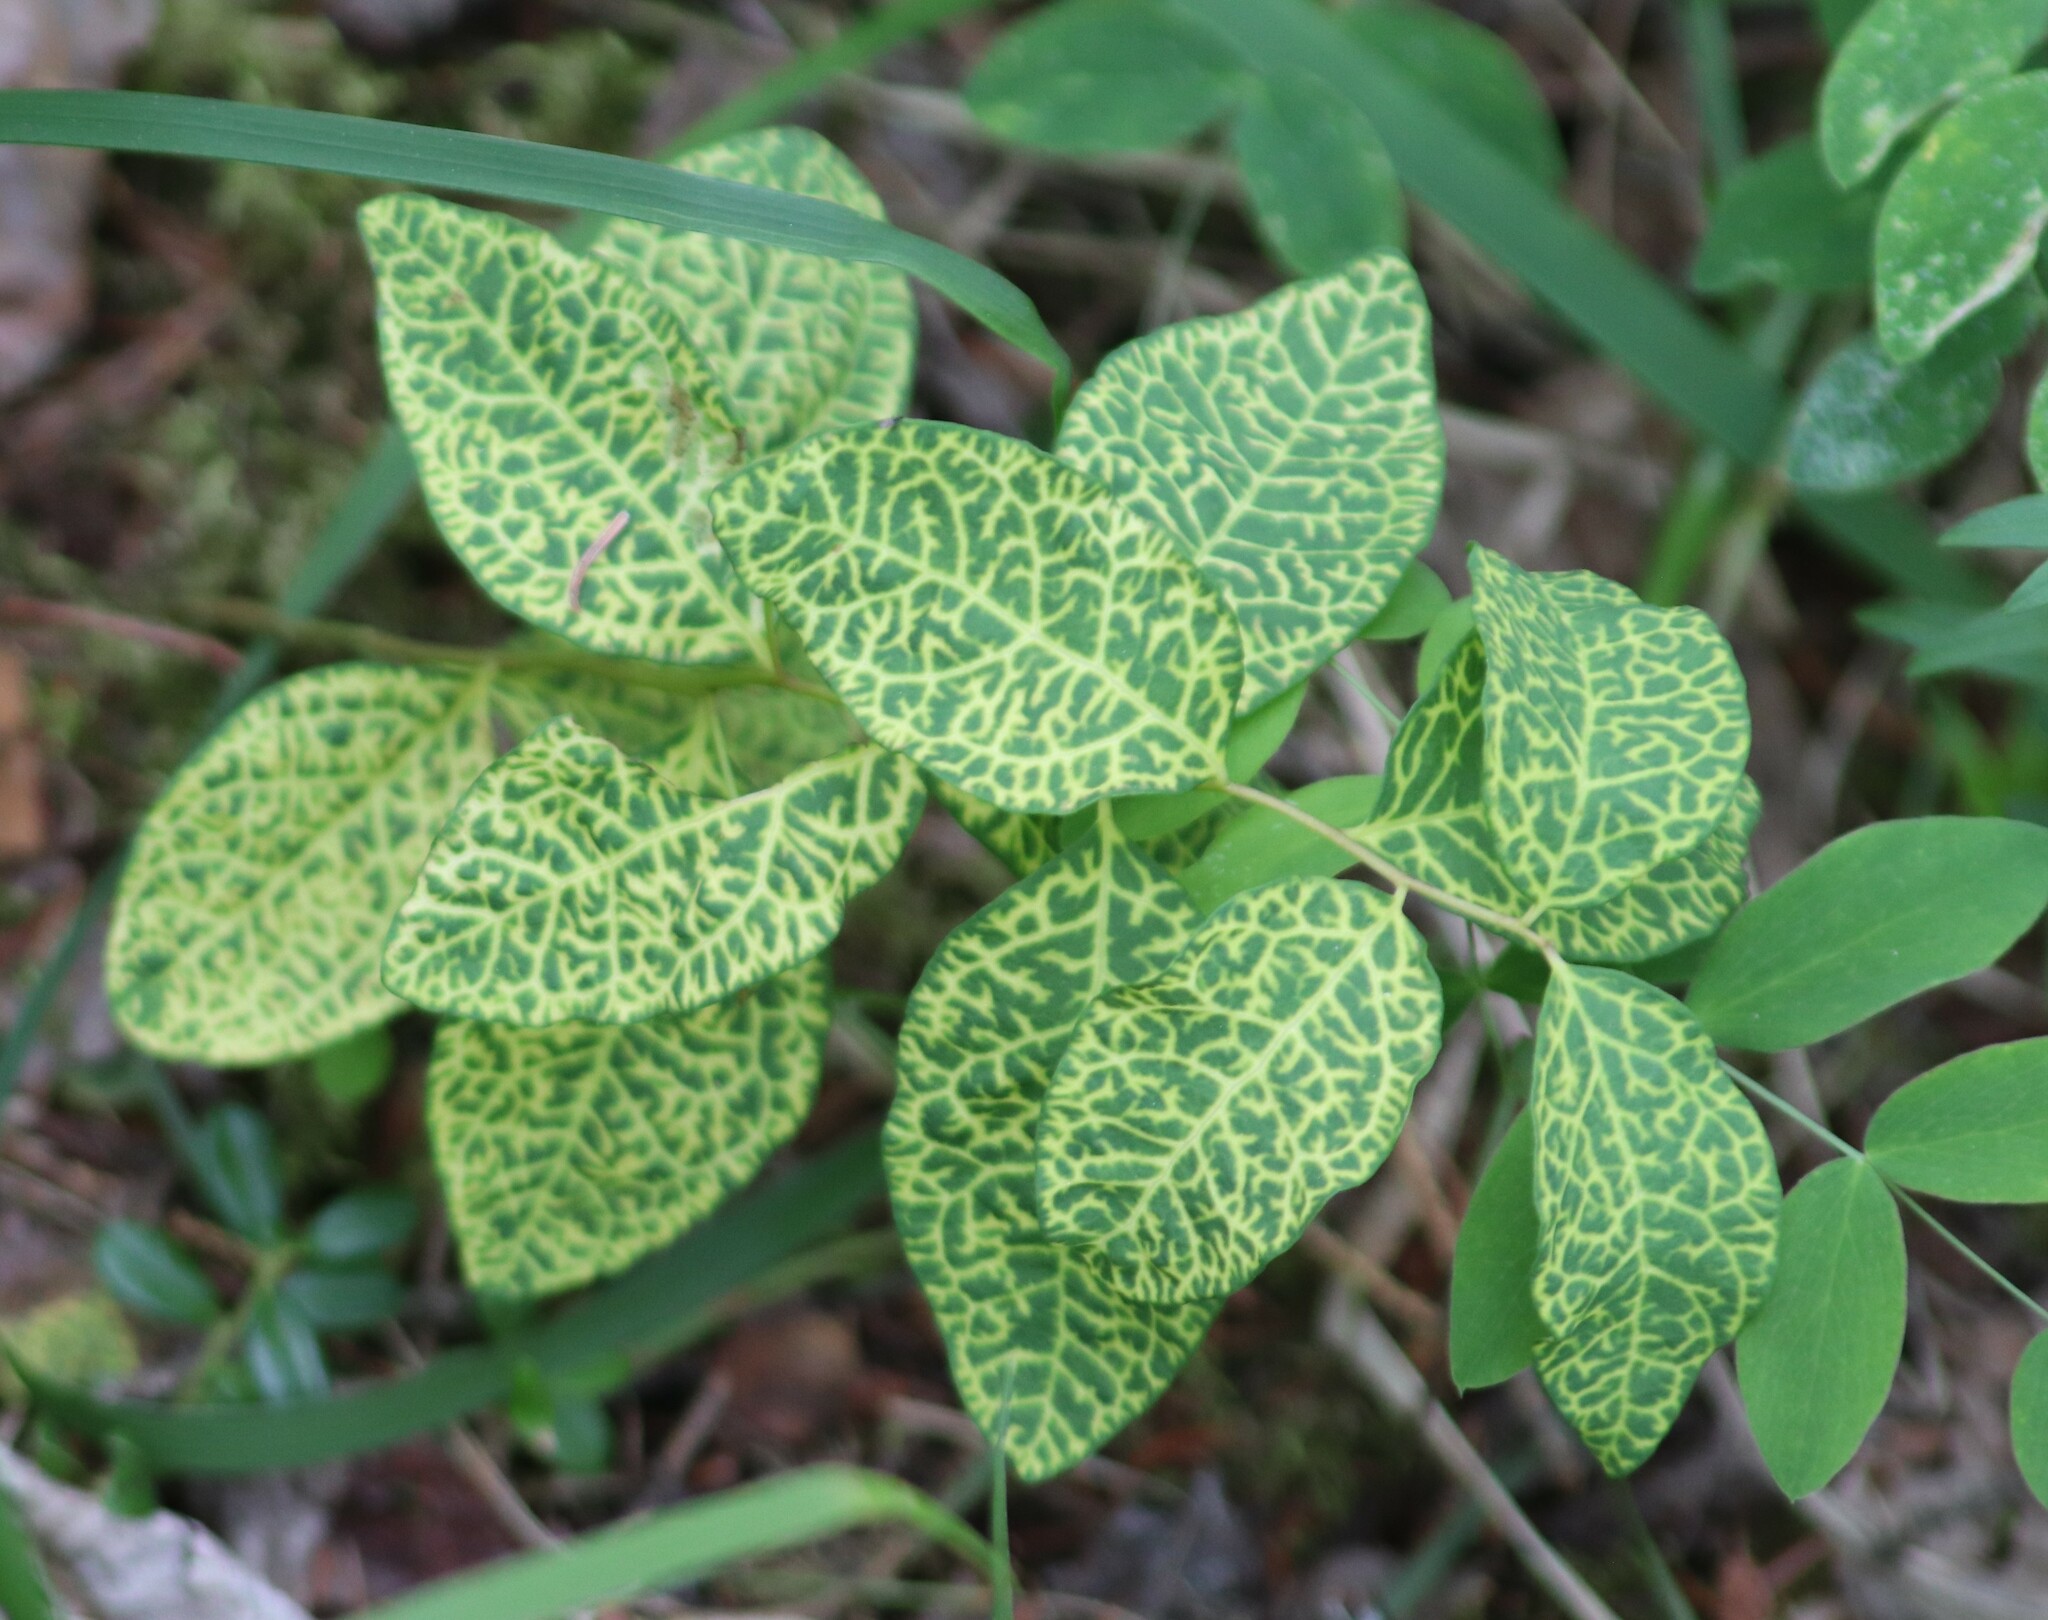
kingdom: Plantae
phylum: Tracheophyta
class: Magnoliopsida
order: Santalales
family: Comandraceae
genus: Geocaulon
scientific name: Geocaulon lividum
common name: Earthberry
